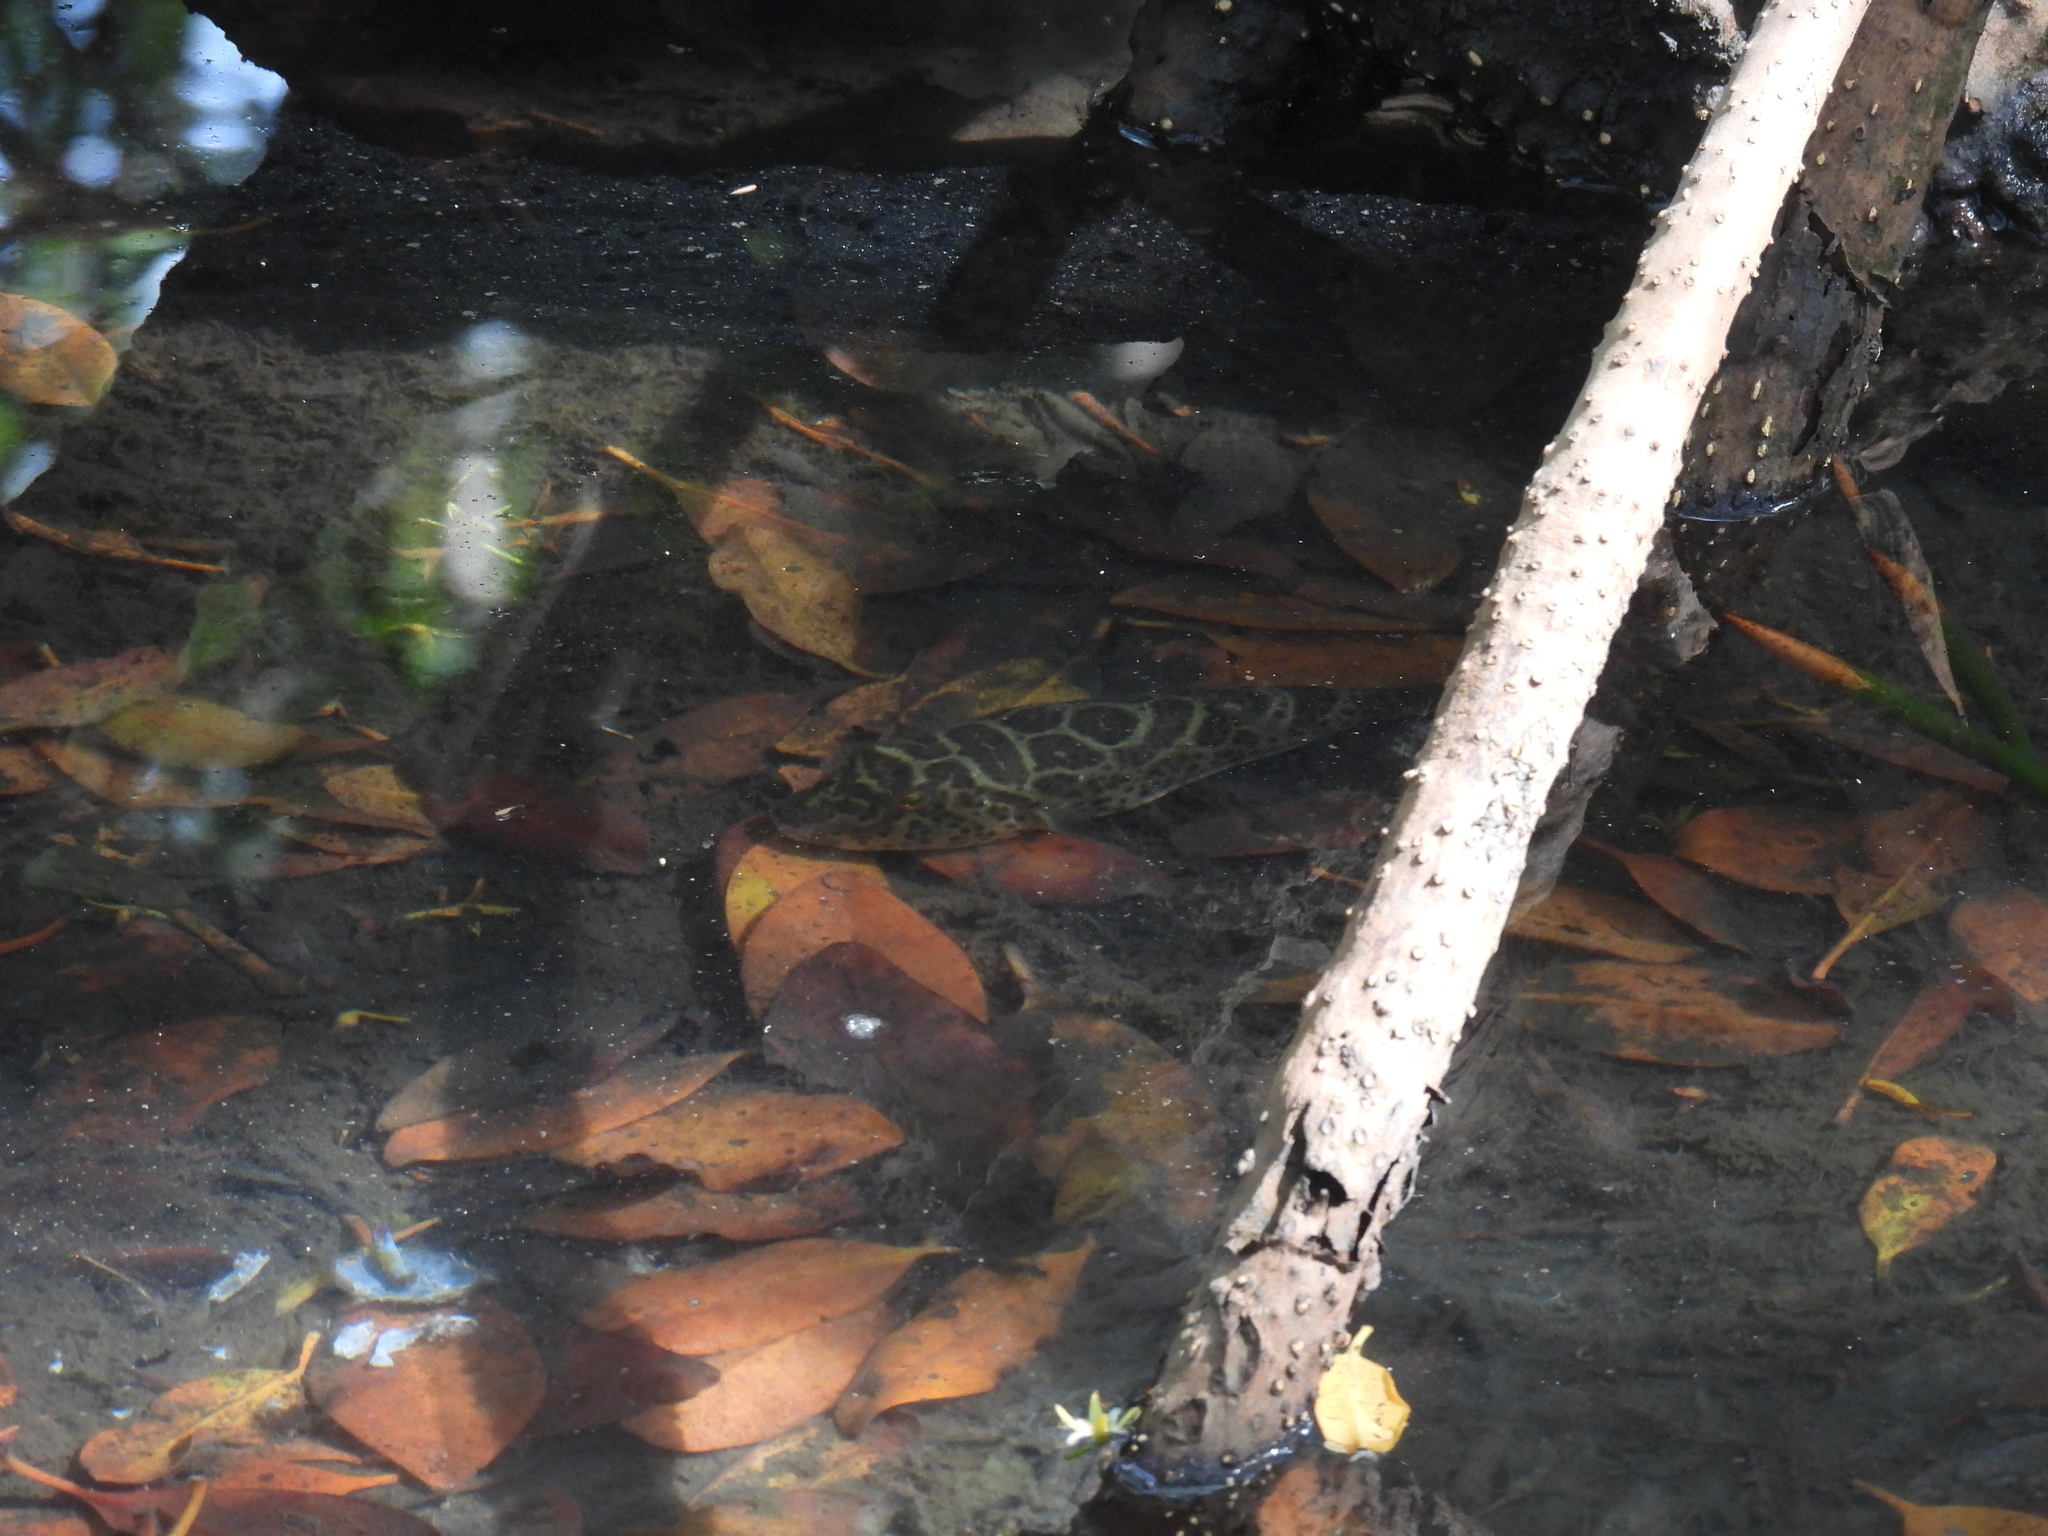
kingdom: Animalia
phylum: Chordata
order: Tetraodontiformes
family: Tetraodontidae
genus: Sphoeroides
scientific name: Sphoeroides testudineus
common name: Checkered puffer
